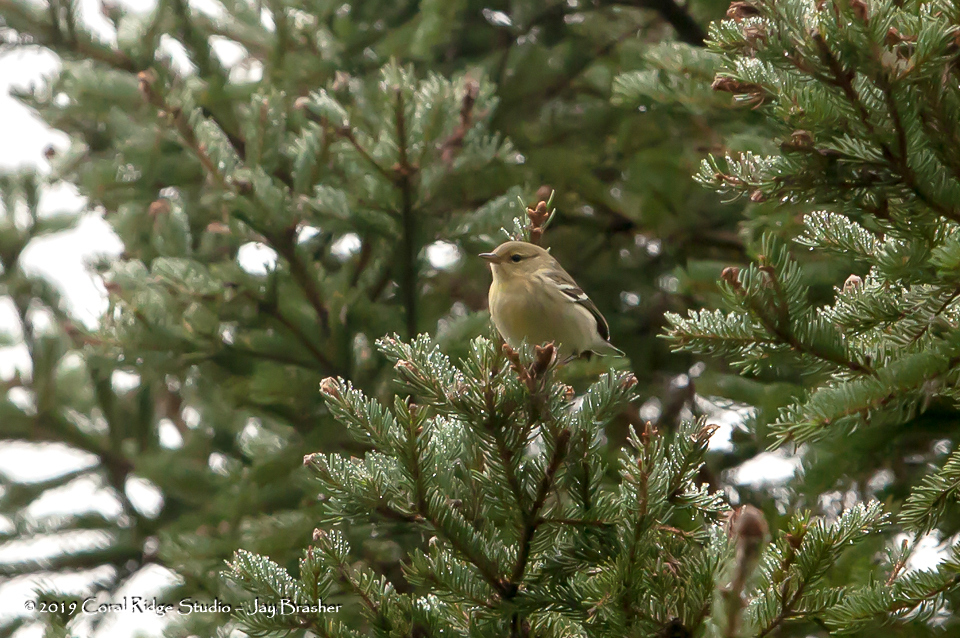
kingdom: Animalia
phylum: Chordata
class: Aves
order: Passeriformes
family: Parulidae
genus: Setophaga
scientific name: Setophaga striata
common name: Blackpoll warbler
